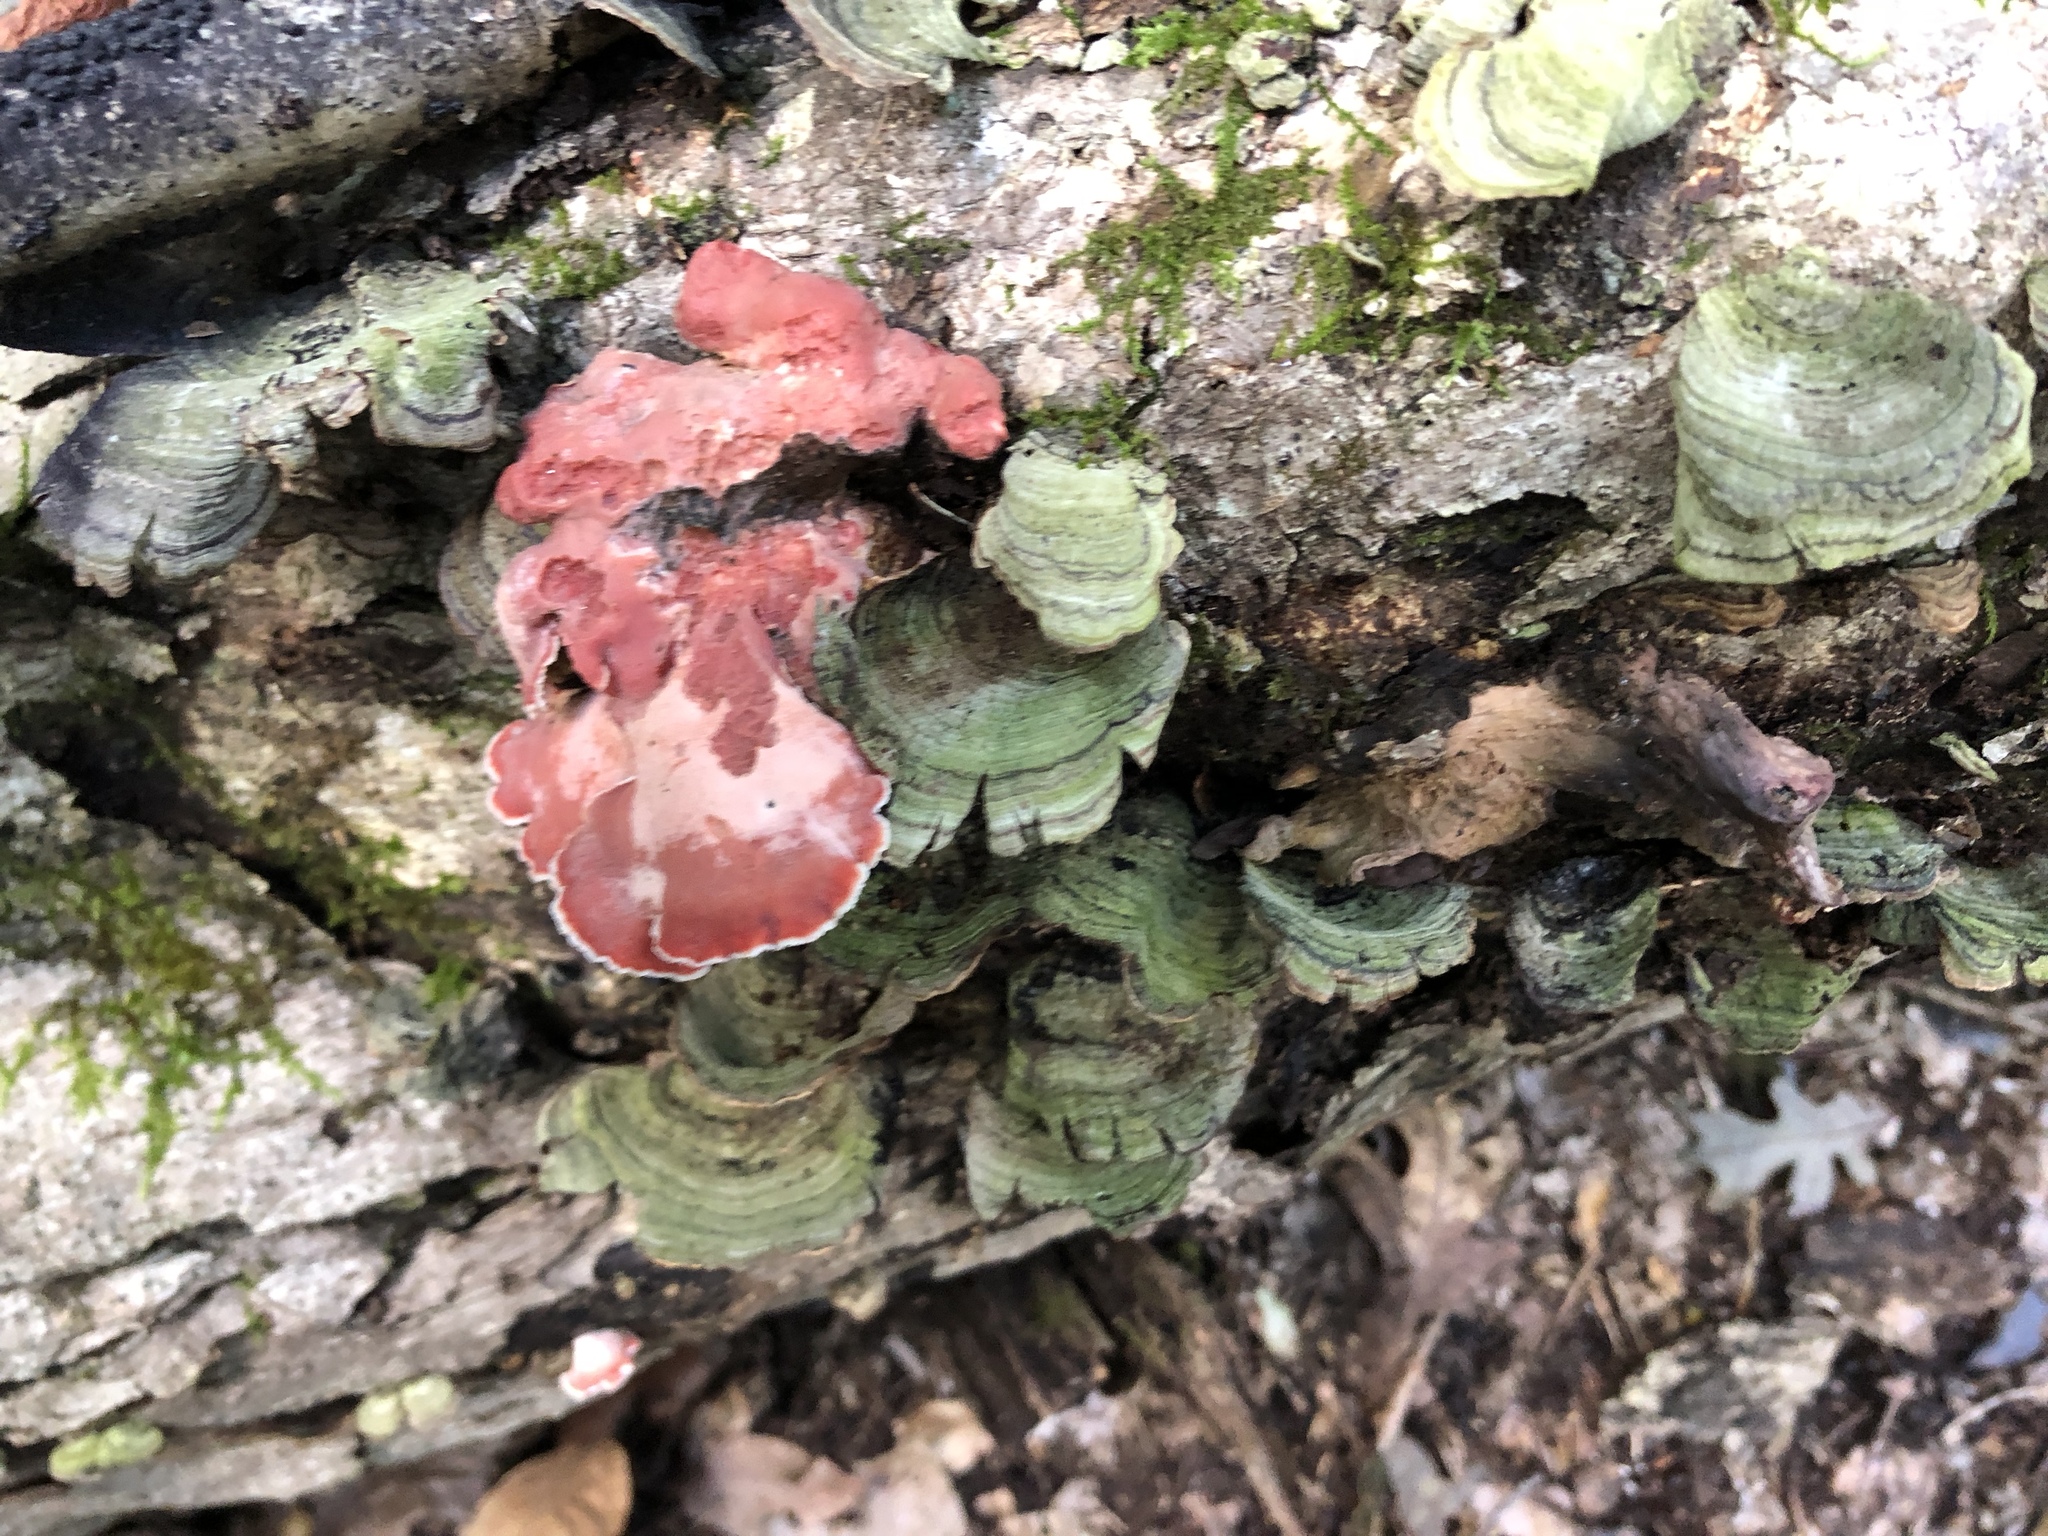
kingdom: Fungi
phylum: Basidiomycota
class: Agaricomycetes
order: Polyporales
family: Irpicaceae
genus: Byssomerulius
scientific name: Byssomerulius incarnatus
